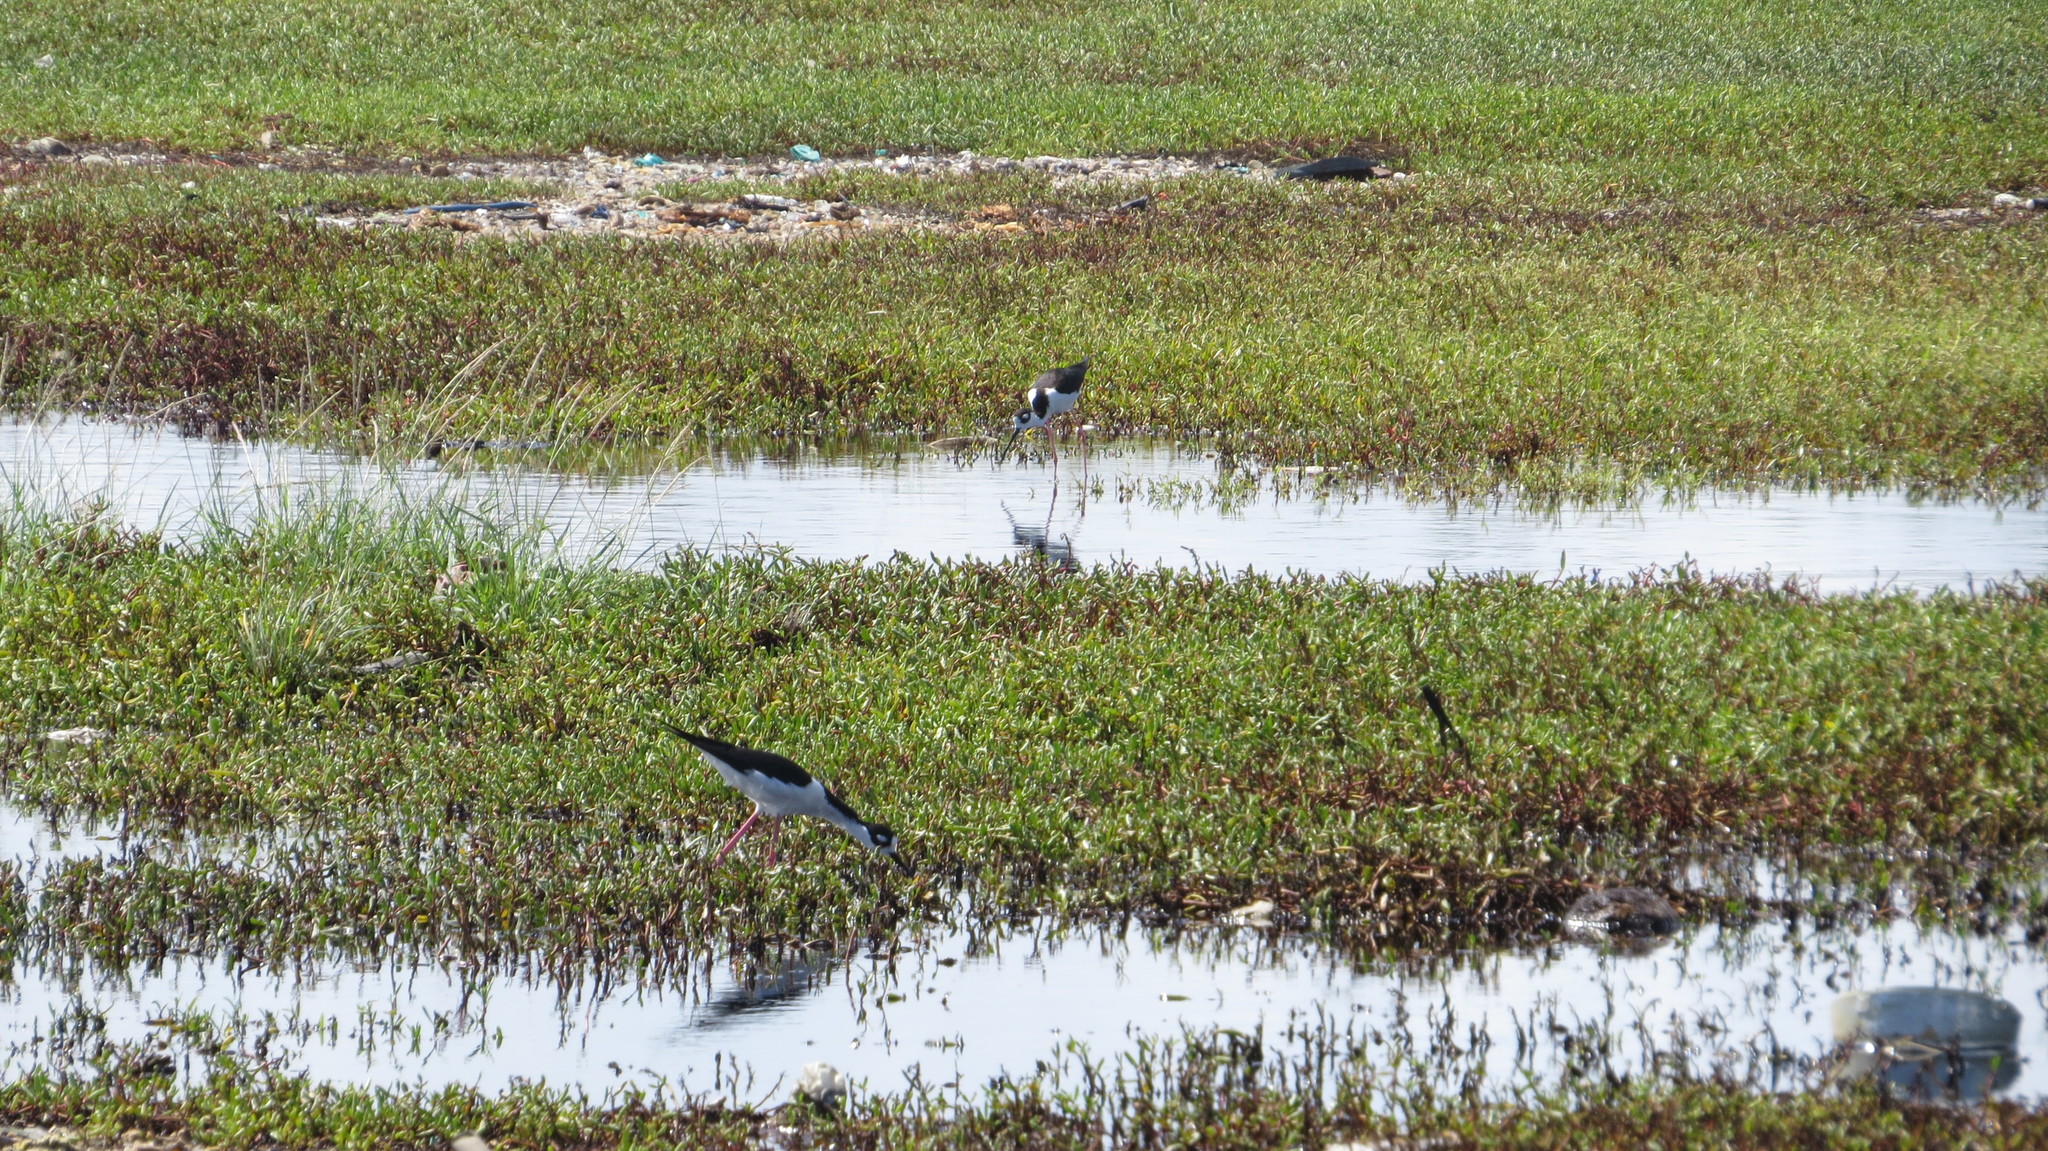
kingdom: Animalia
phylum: Chordata
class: Aves
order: Charadriiformes
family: Recurvirostridae
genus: Himantopus
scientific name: Himantopus mexicanus
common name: Black-necked stilt
